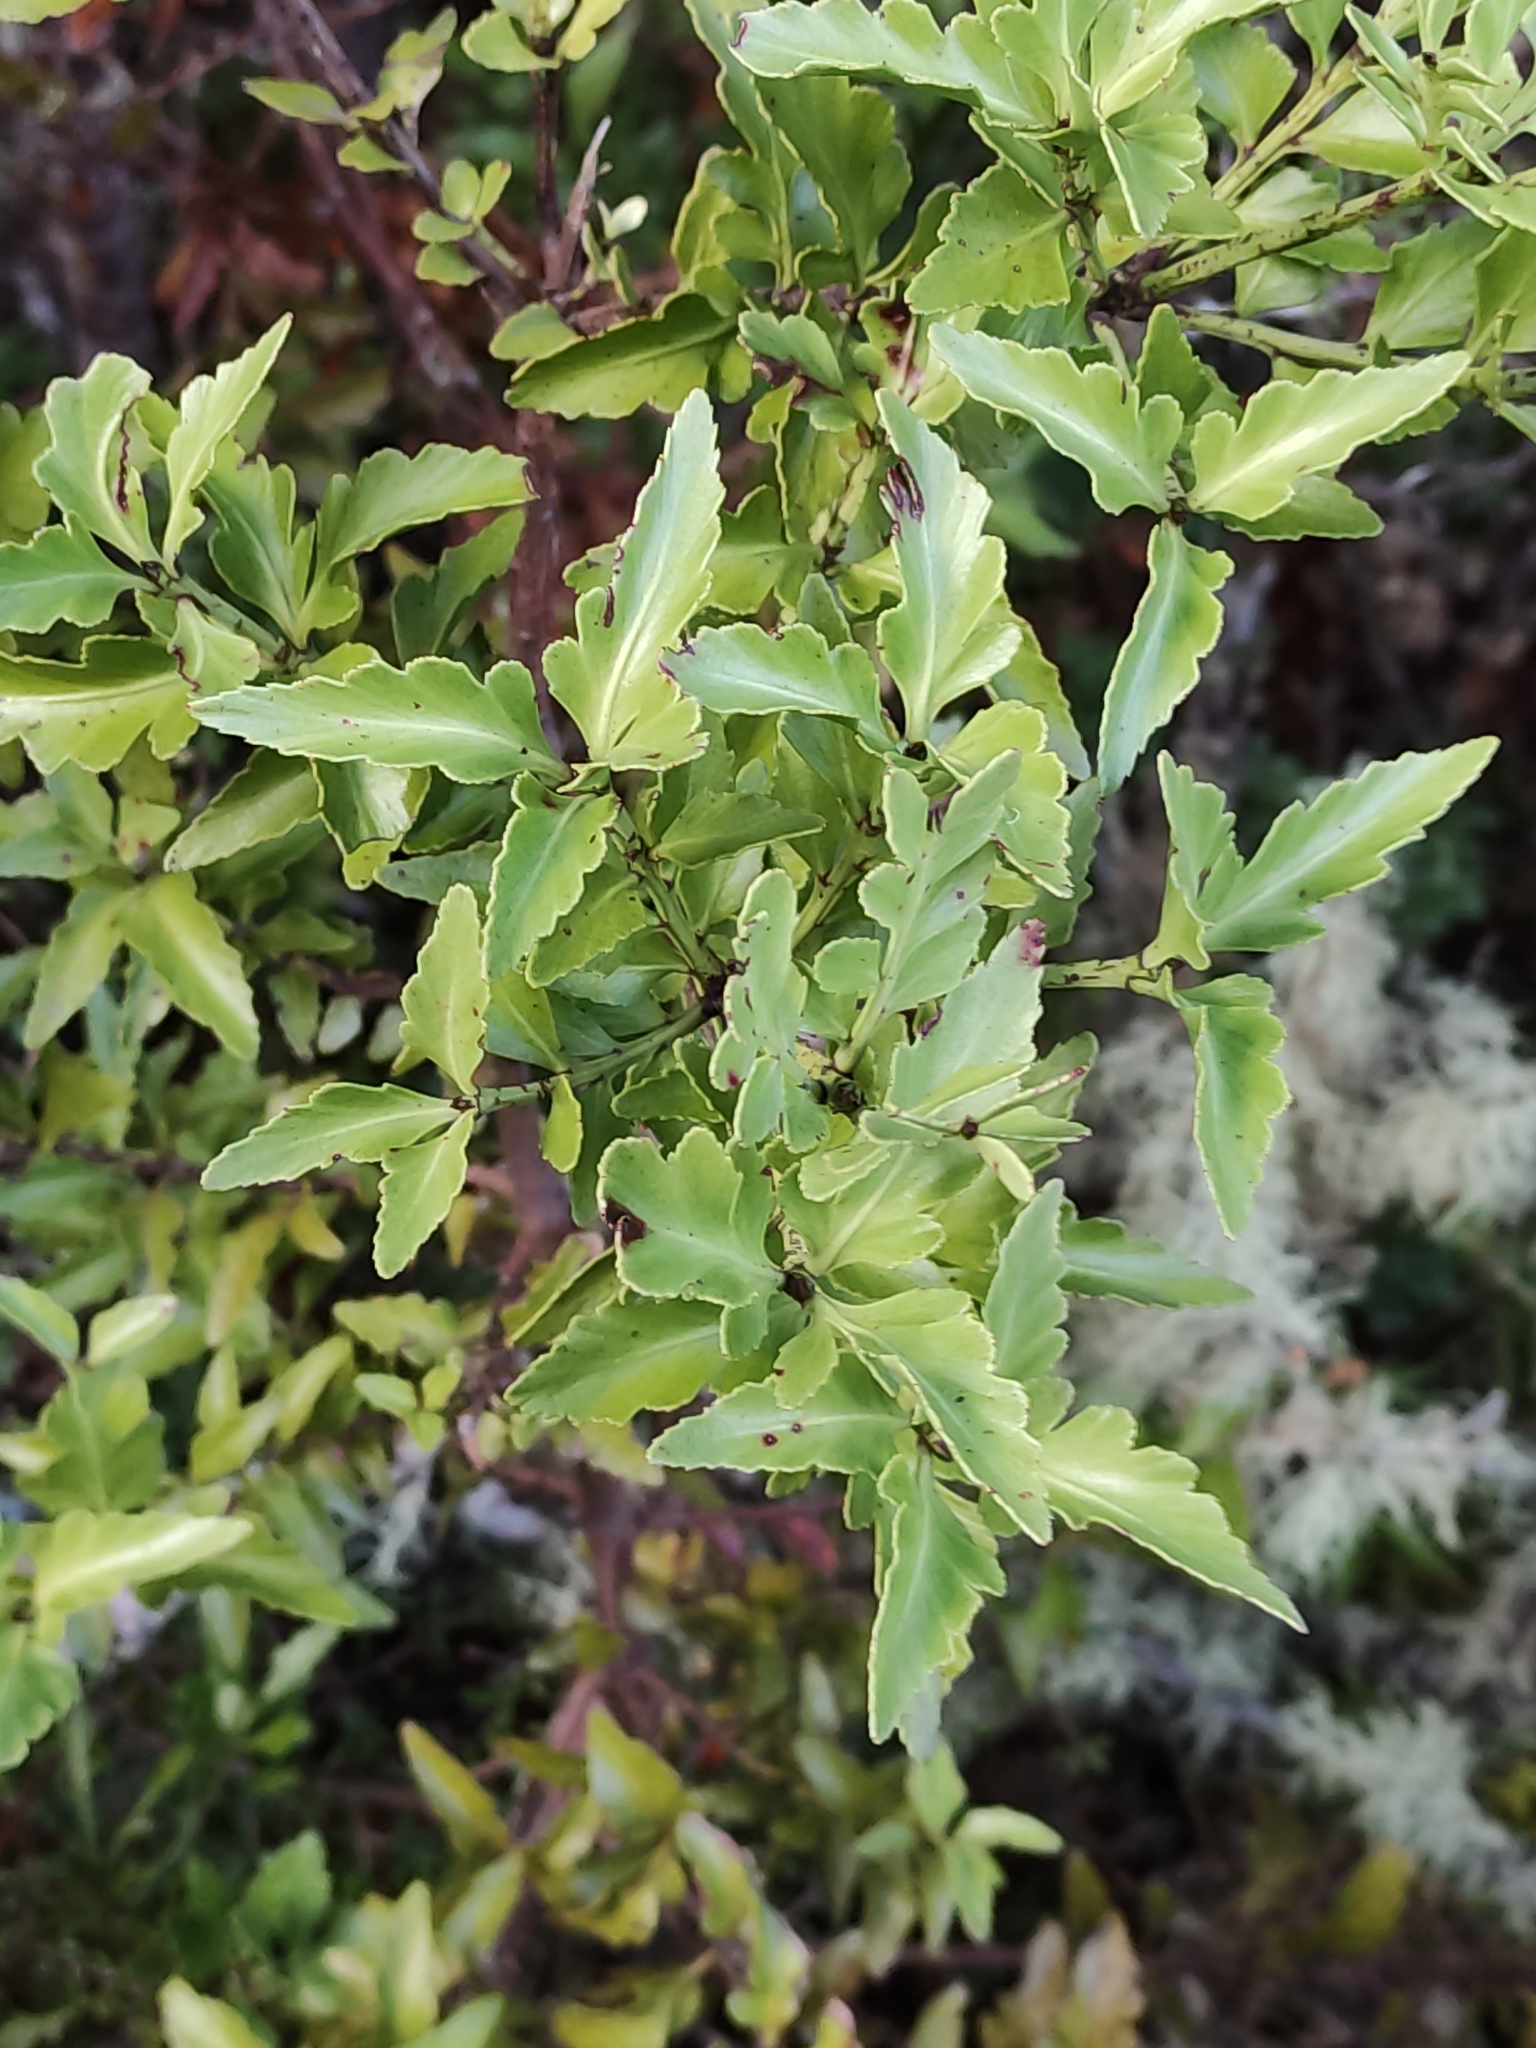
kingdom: Plantae
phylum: Tracheophyta
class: Pinopsida
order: Pinales
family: Phyllocladaceae
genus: Phyllocladus
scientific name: Phyllocladus trichomanoides
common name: Celery pine
